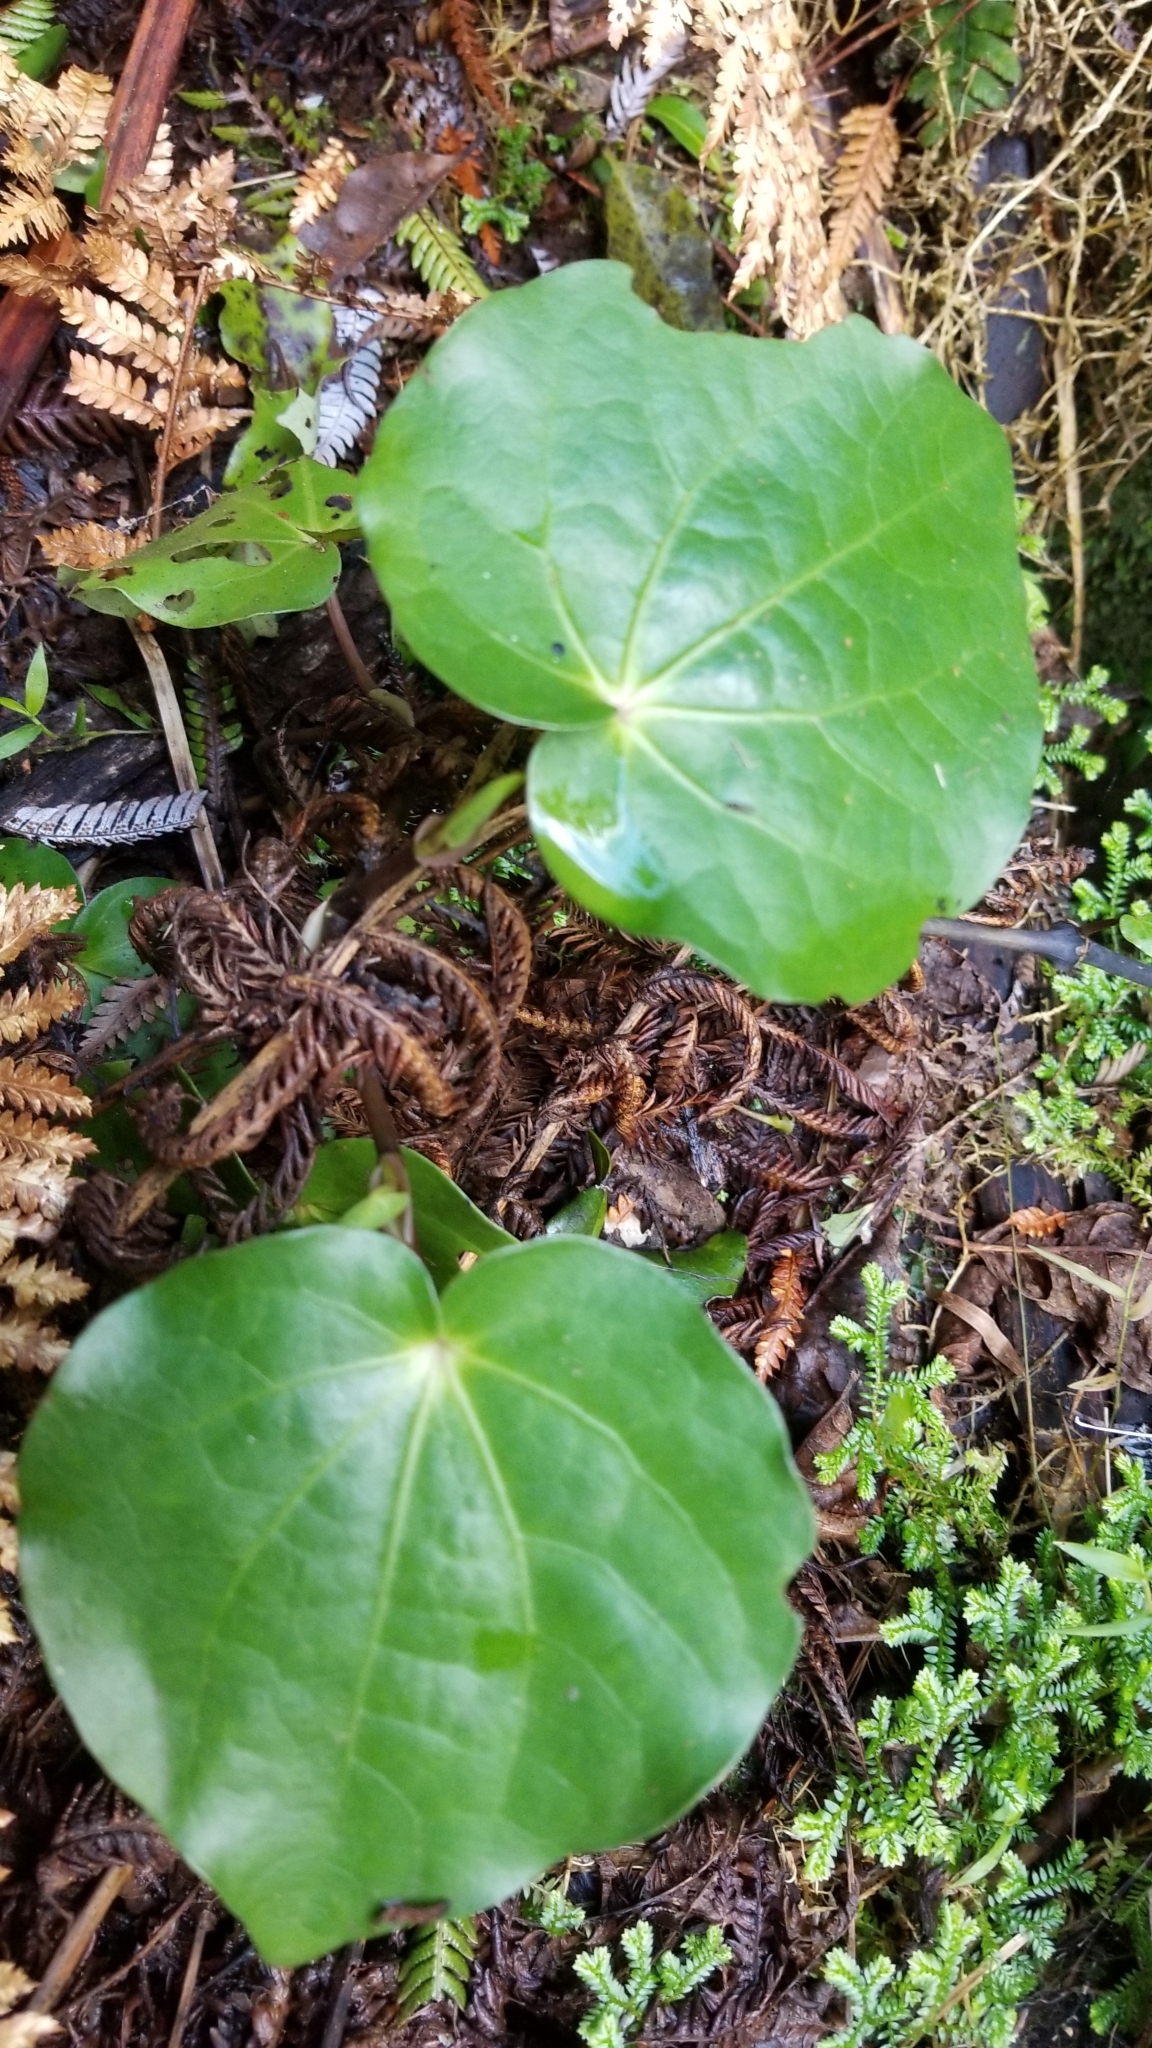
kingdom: Plantae
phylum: Tracheophyta
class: Magnoliopsida
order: Piperales
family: Piperaceae
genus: Macropiper
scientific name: Macropiper excelsum
